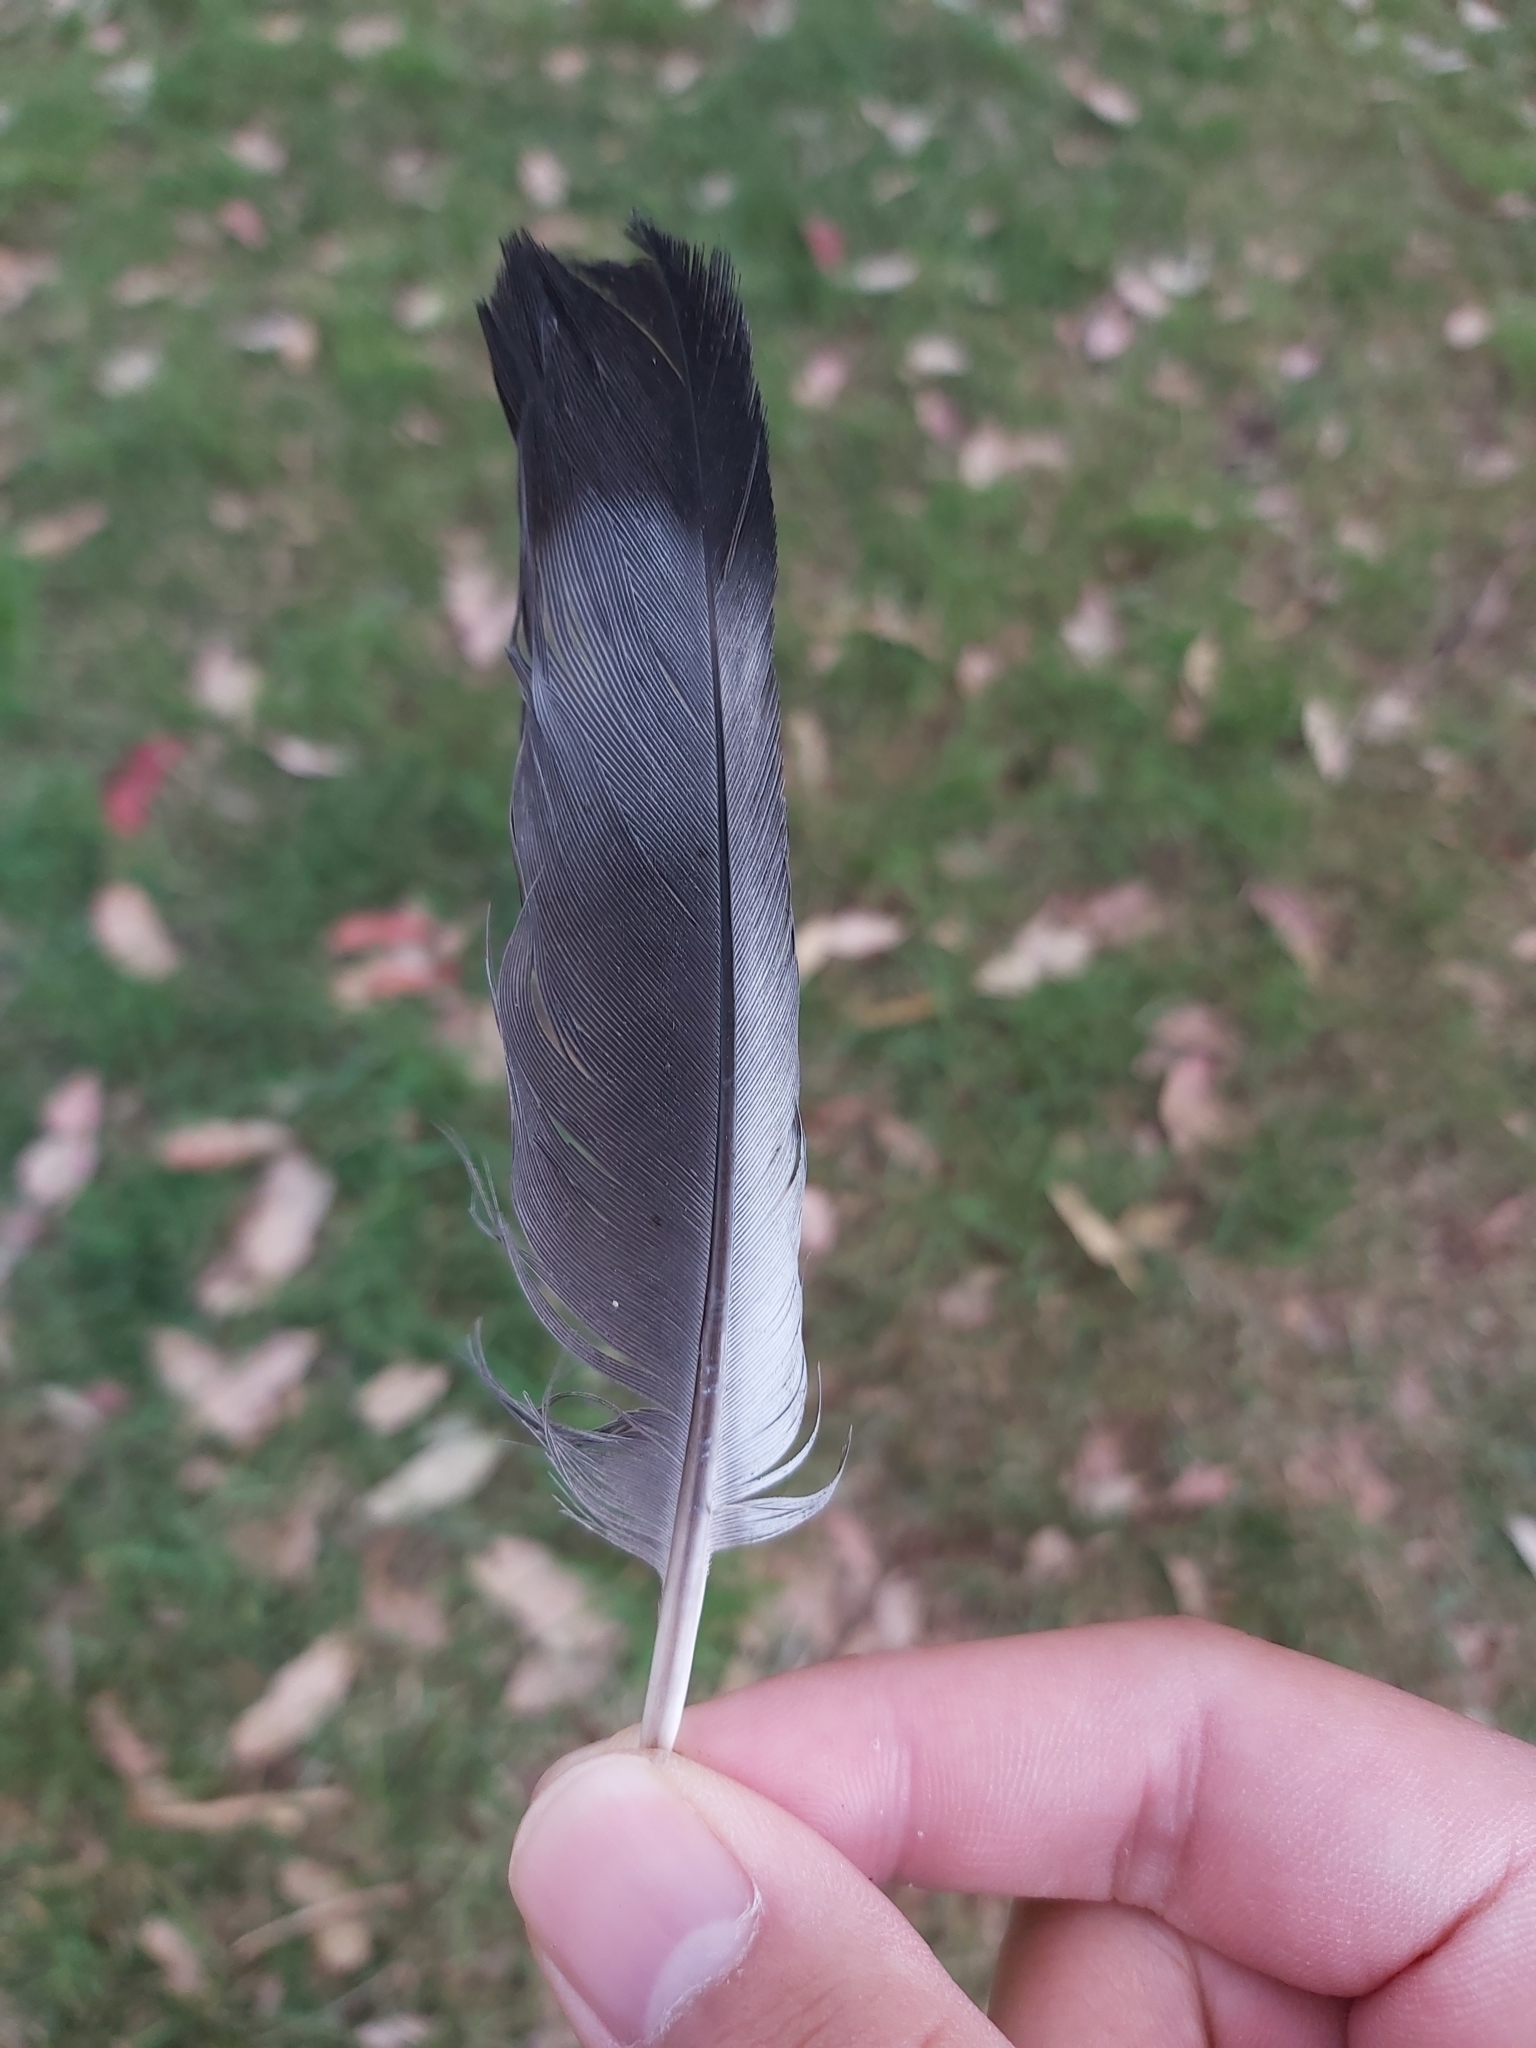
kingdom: Animalia
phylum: Chordata
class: Aves
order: Columbiformes
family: Columbidae
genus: Columba
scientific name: Columba livia
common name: Rock pigeon
